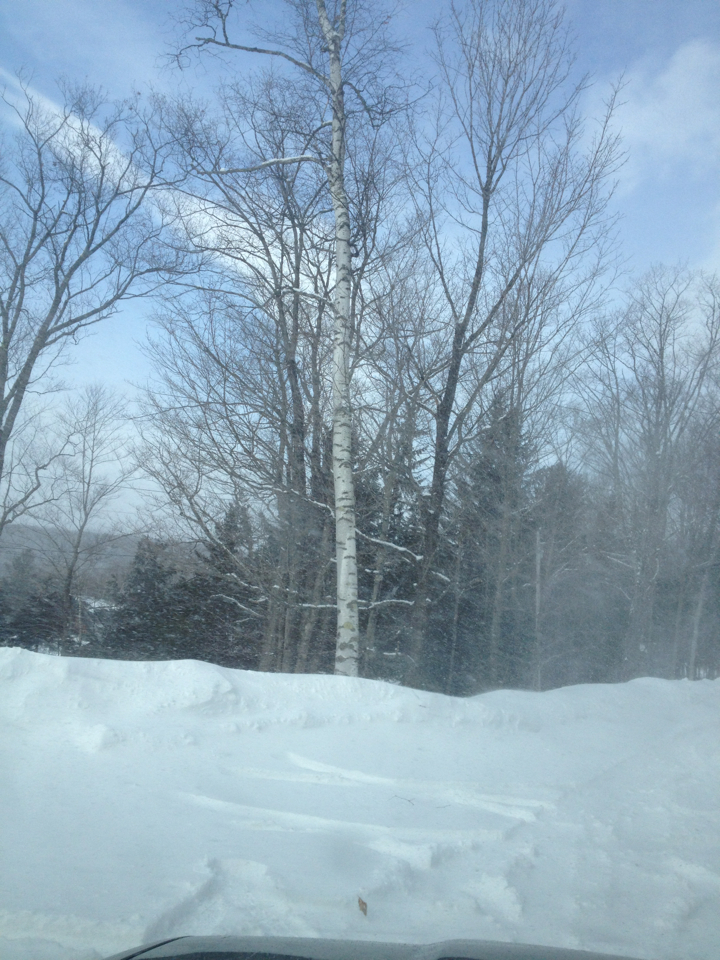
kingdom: Plantae
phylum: Tracheophyta
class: Magnoliopsida
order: Fagales
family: Betulaceae
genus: Betula
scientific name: Betula papyrifera
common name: Paper birch
